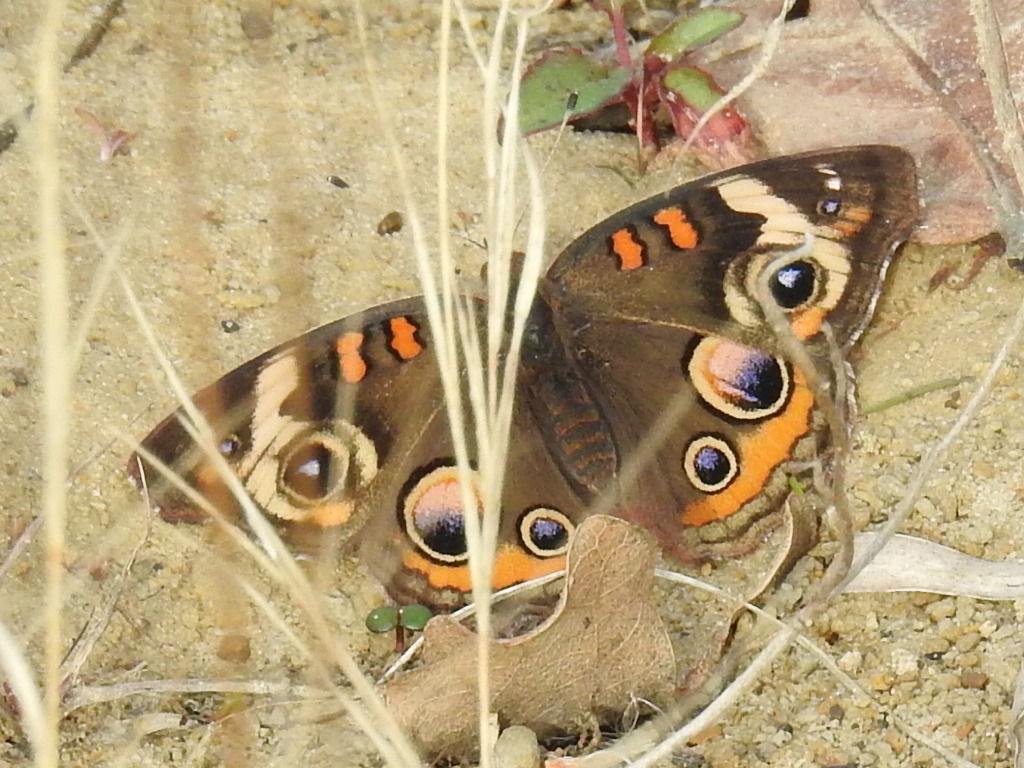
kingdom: Animalia
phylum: Arthropoda
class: Insecta
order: Lepidoptera
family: Nymphalidae
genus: Junonia
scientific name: Junonia coenia
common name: Common buckeye
